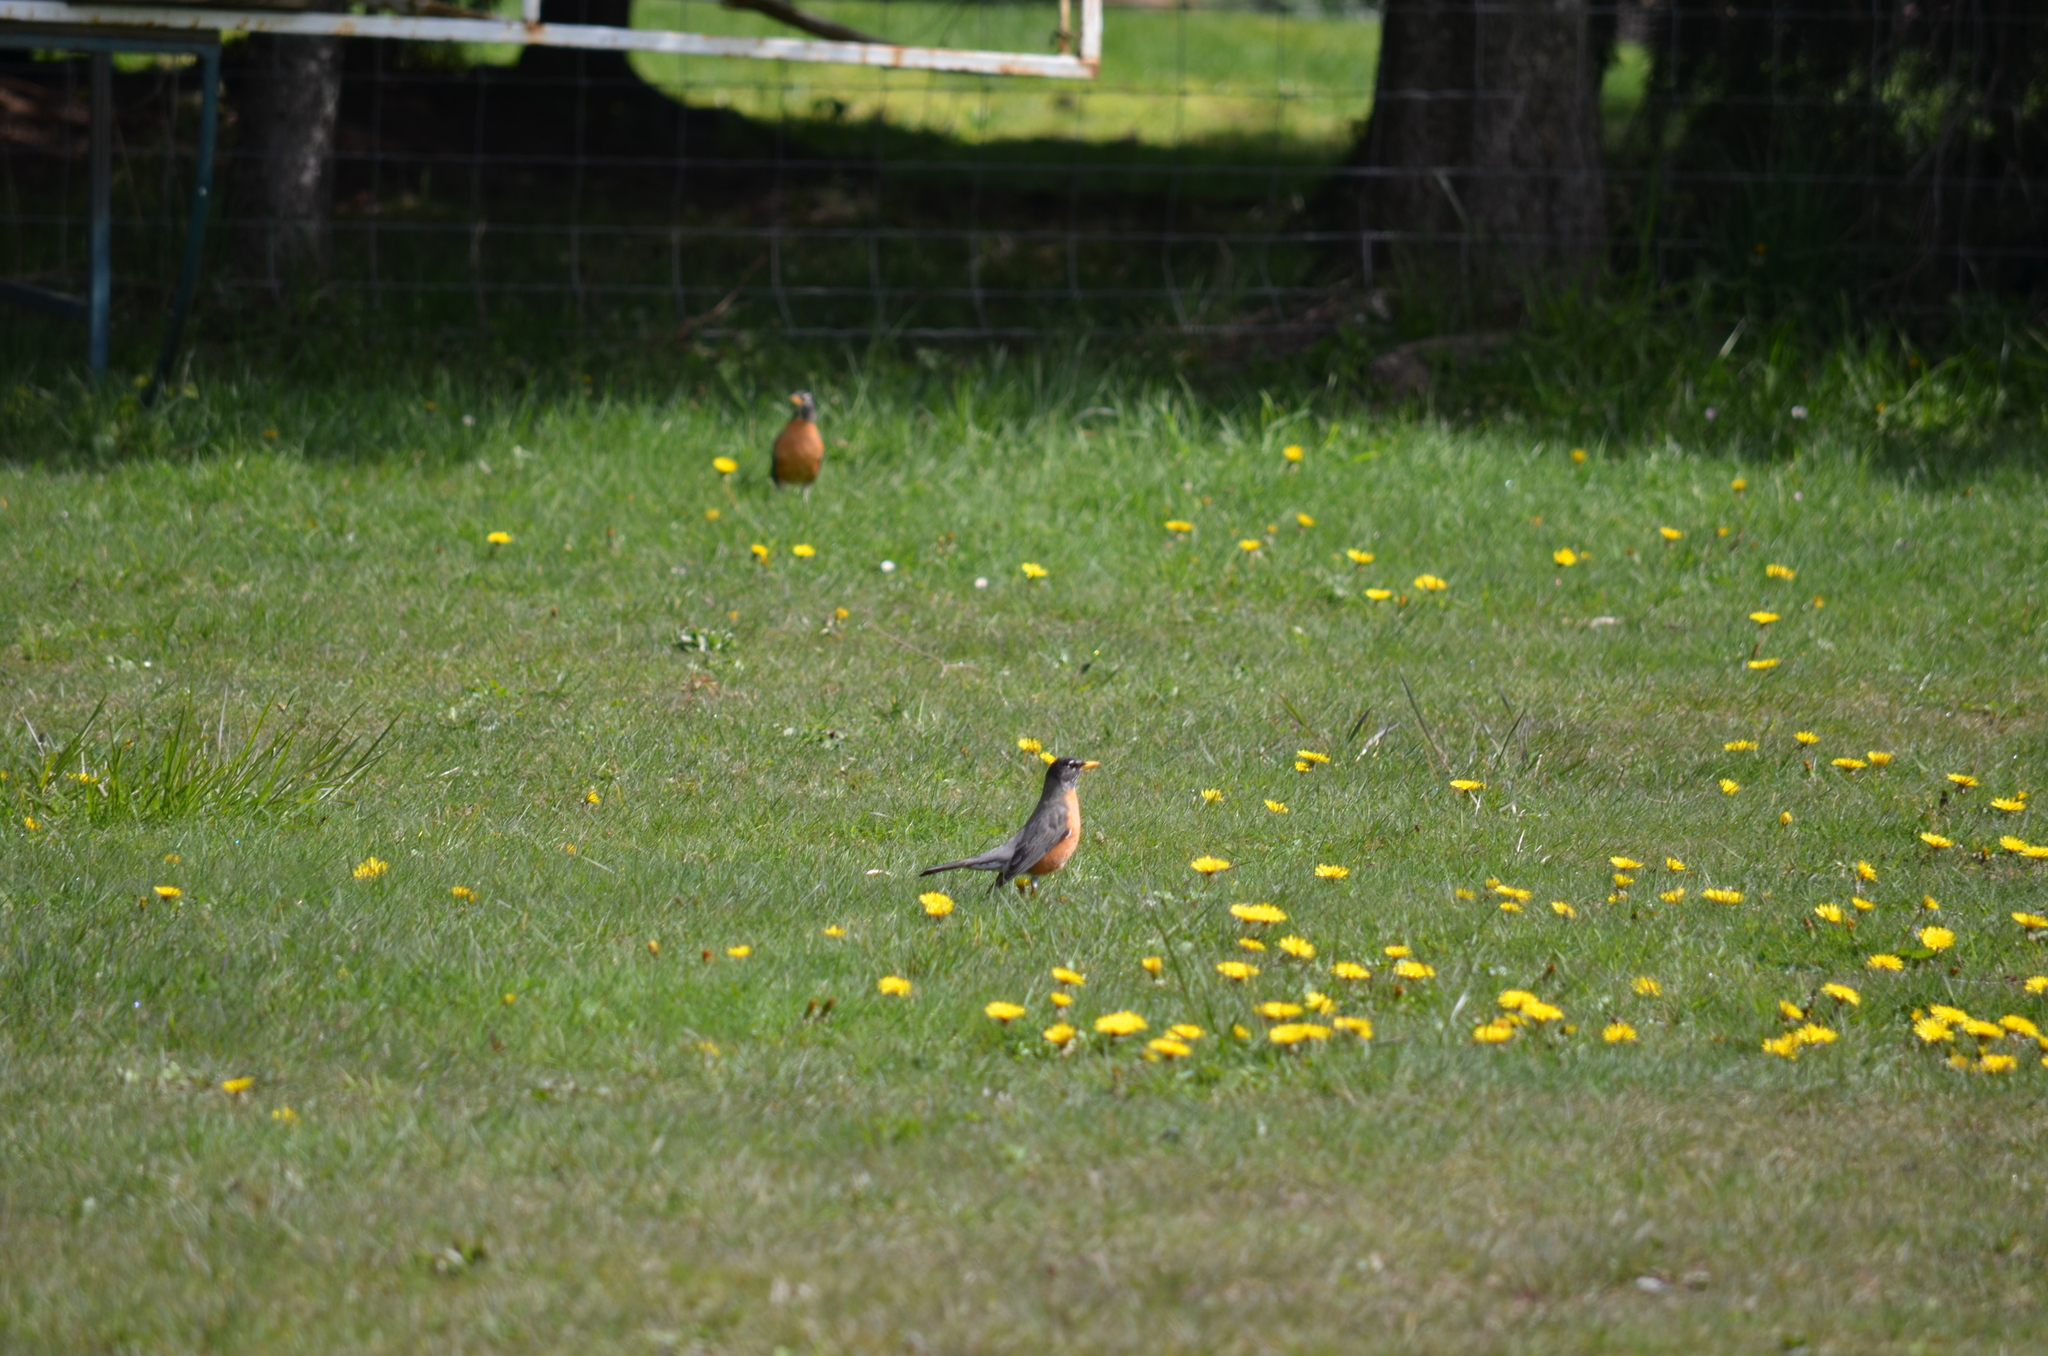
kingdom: Animalia
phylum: Chordata
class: Aves
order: Passeriformes
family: Turdidae
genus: Turdus
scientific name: Turdus migratorius
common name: American robin
